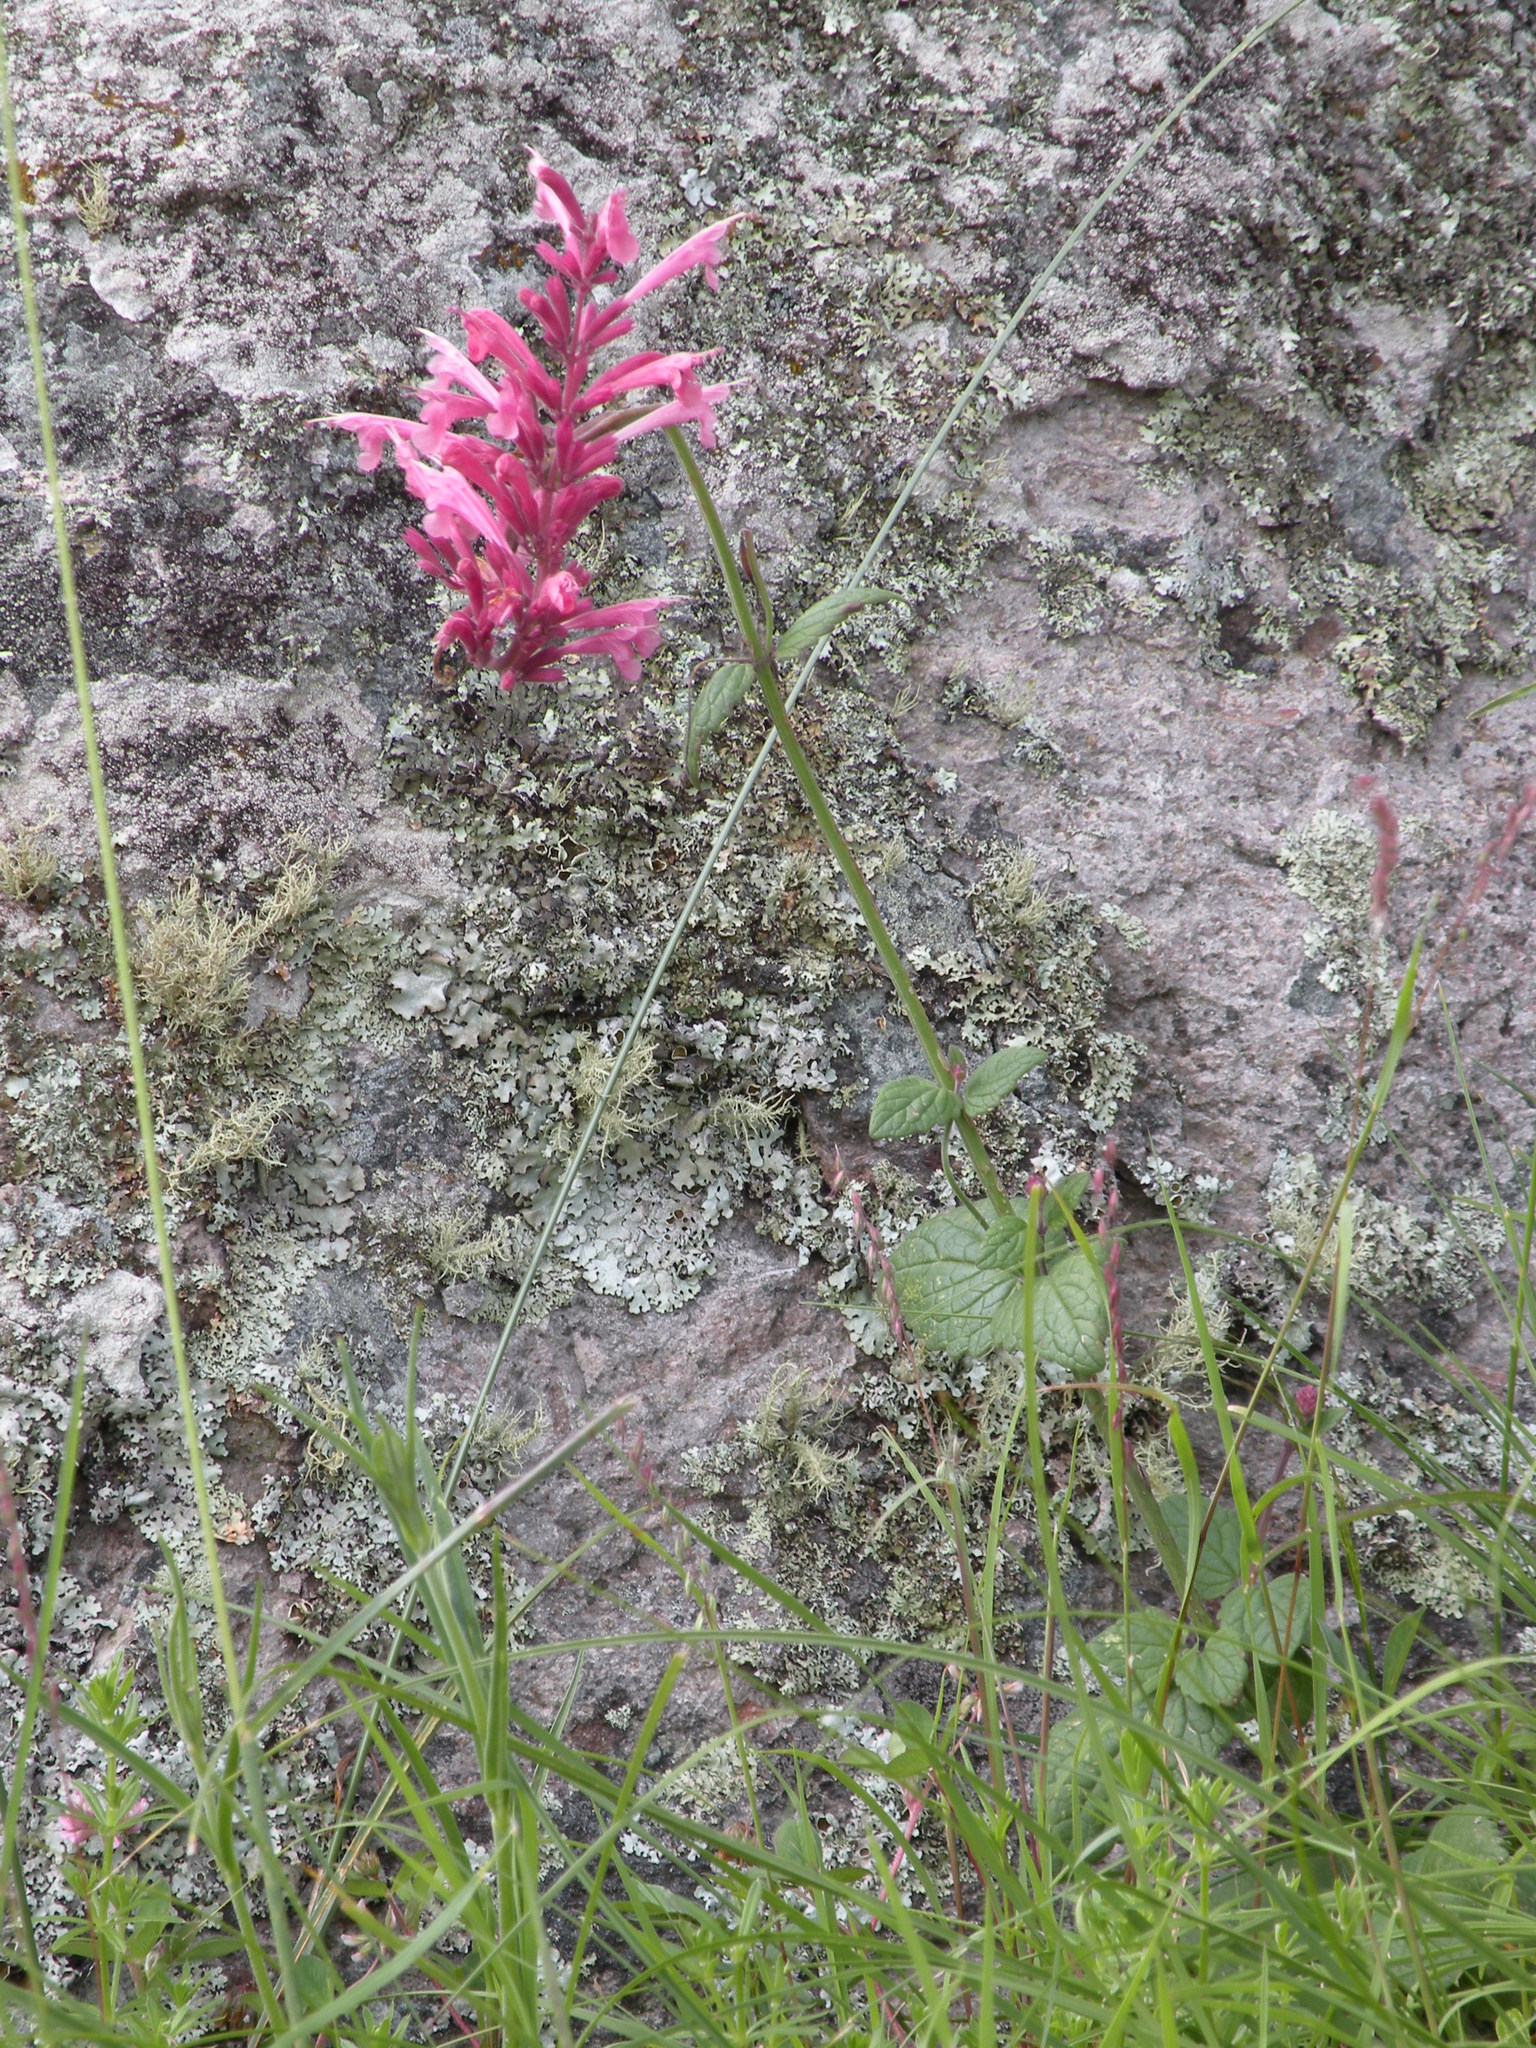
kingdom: Plantae
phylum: Tracheophyta
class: Magnoliopsida
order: Lamiales
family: Lamiaceae
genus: Agastache
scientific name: Agastache pallida
